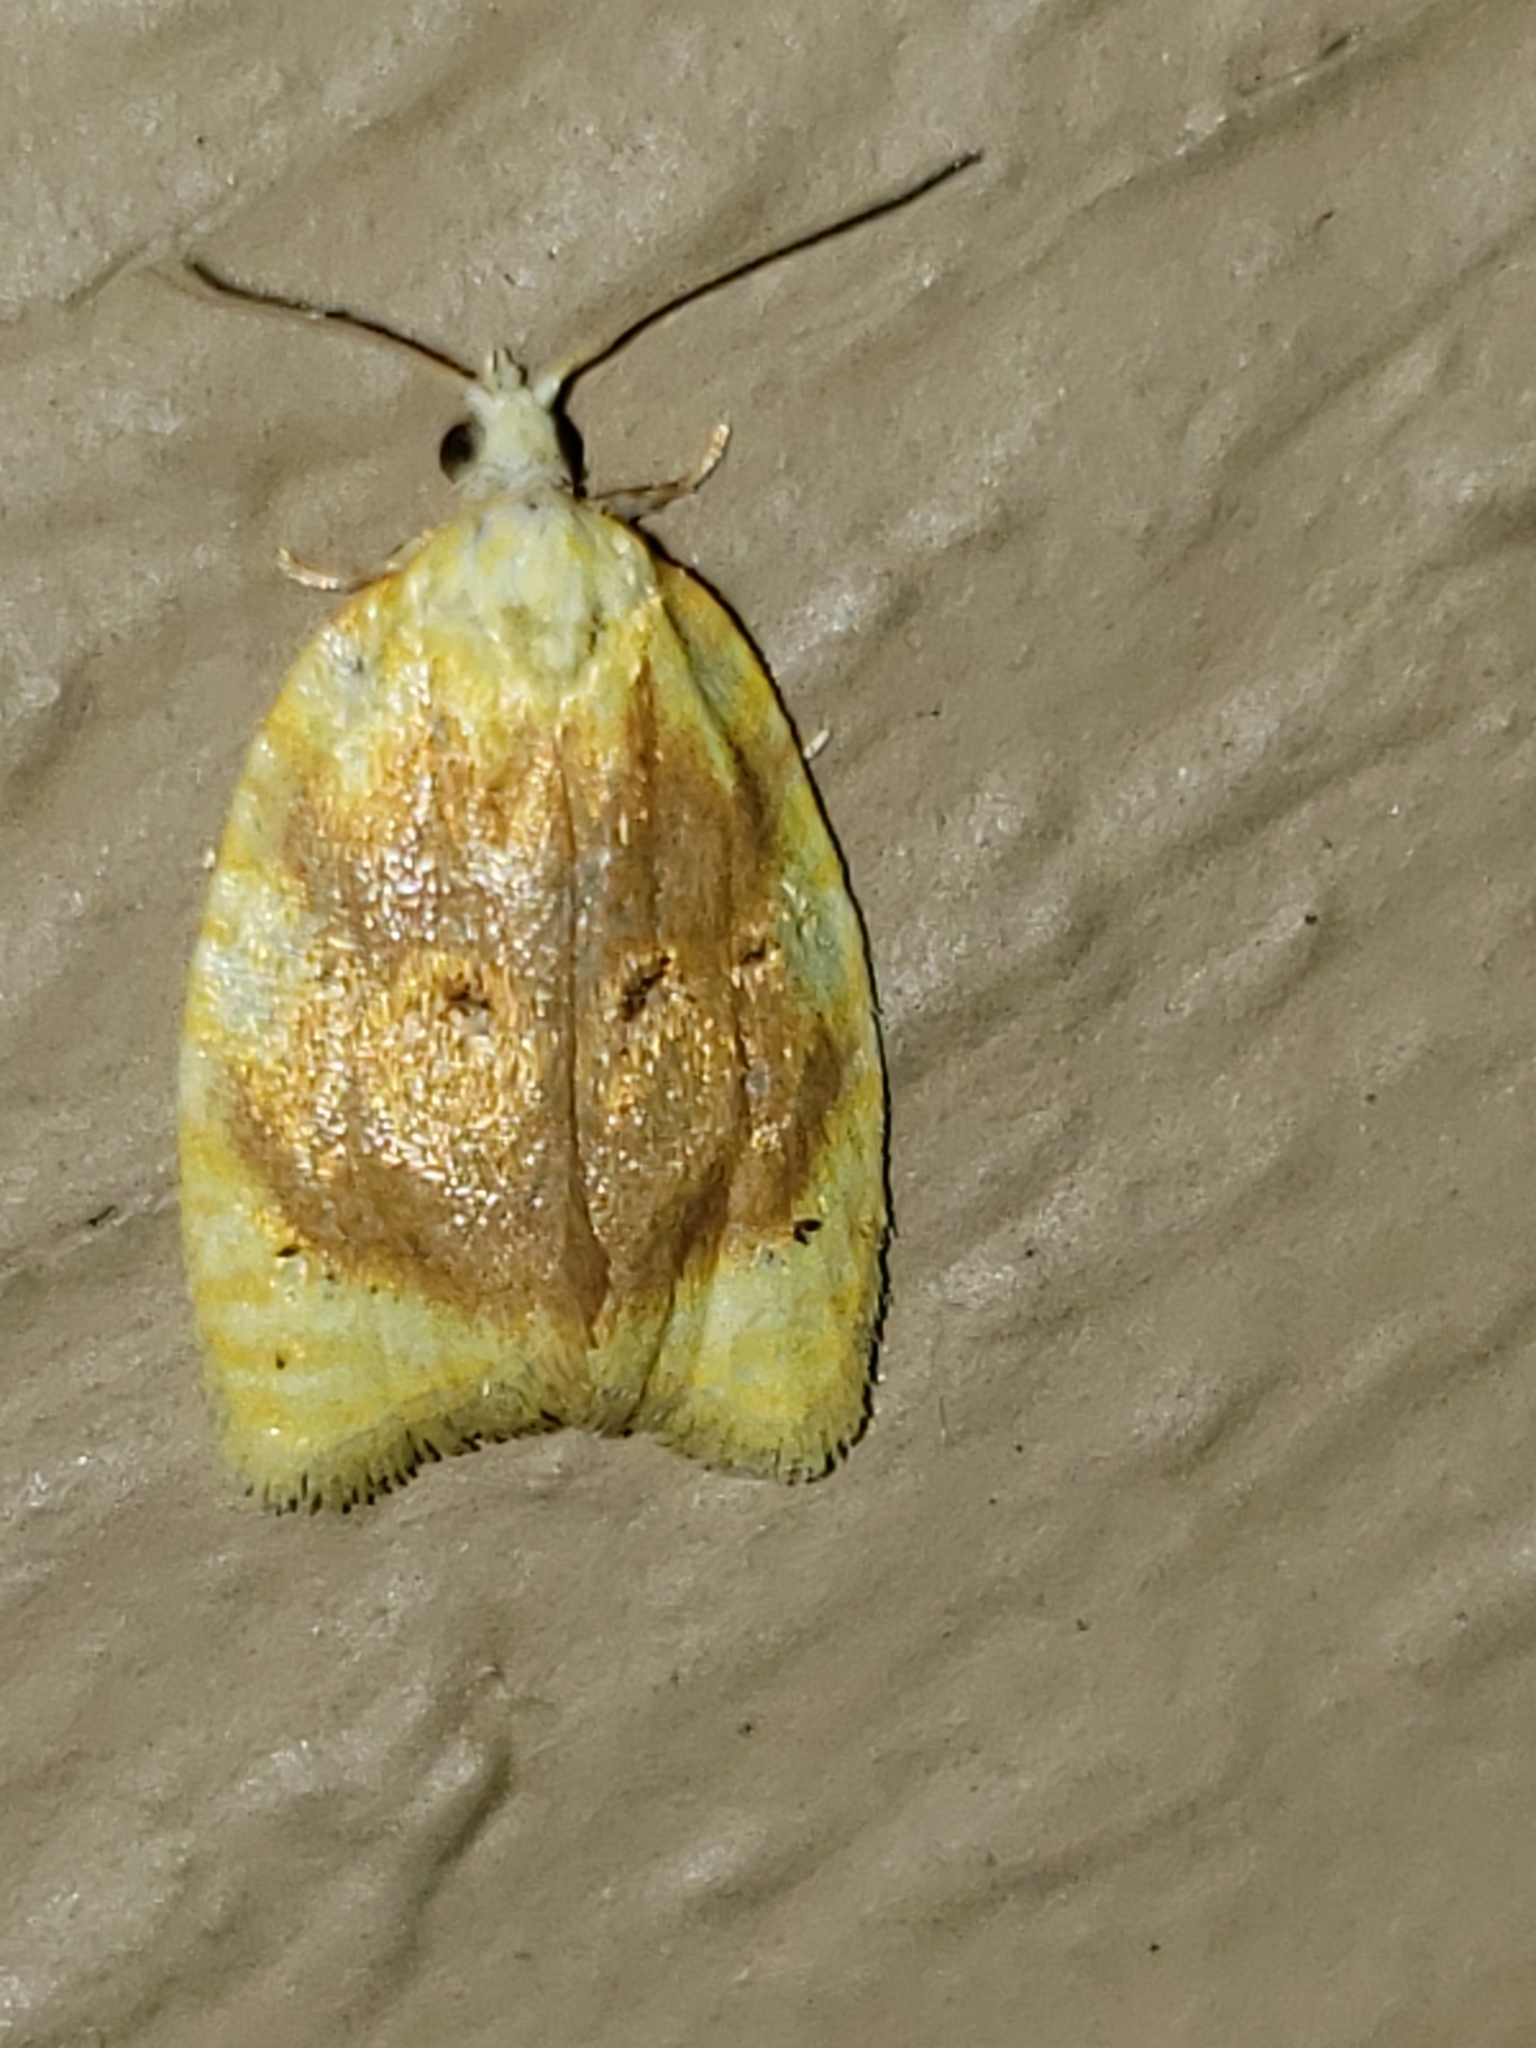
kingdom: Animalia
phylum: Arthropoda
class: Insecta
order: Lepidoptera
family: Tortricidae
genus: Acleris
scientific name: Acleris semipurpurana
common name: Oak leaftier moth
